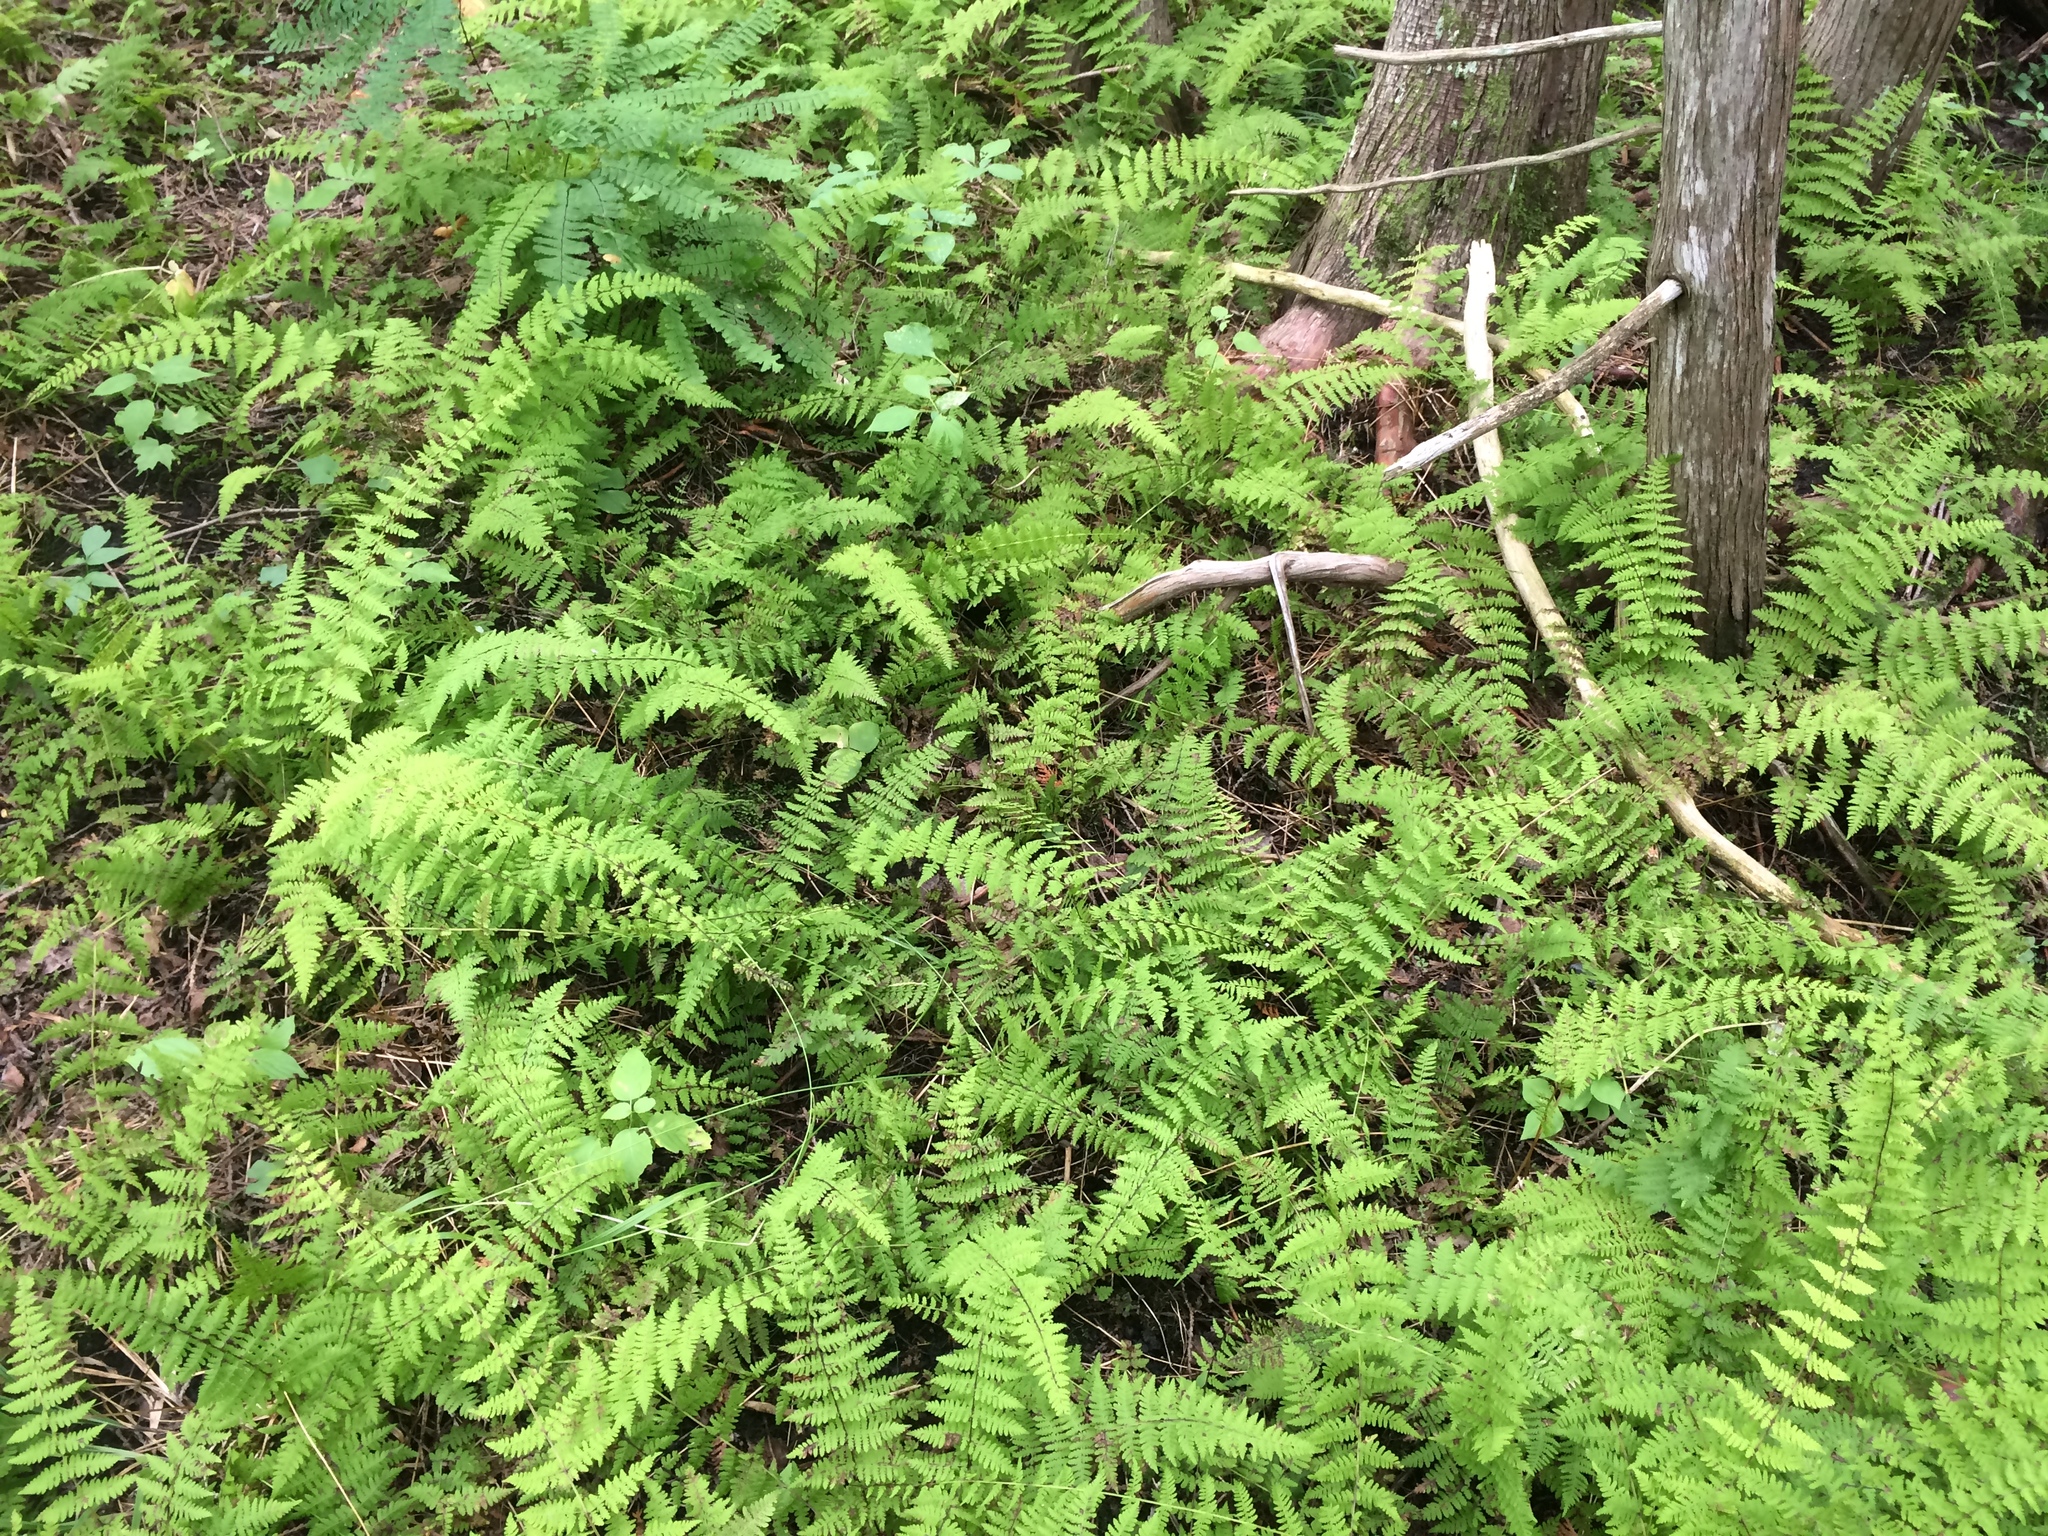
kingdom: Plantae
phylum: Tracheophyta
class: Polypodiopsida
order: Polypodiales
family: Cystopteridaceae
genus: Cystopteris
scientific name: Cystopteris bulbifera
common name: Bulblet bladder fern
